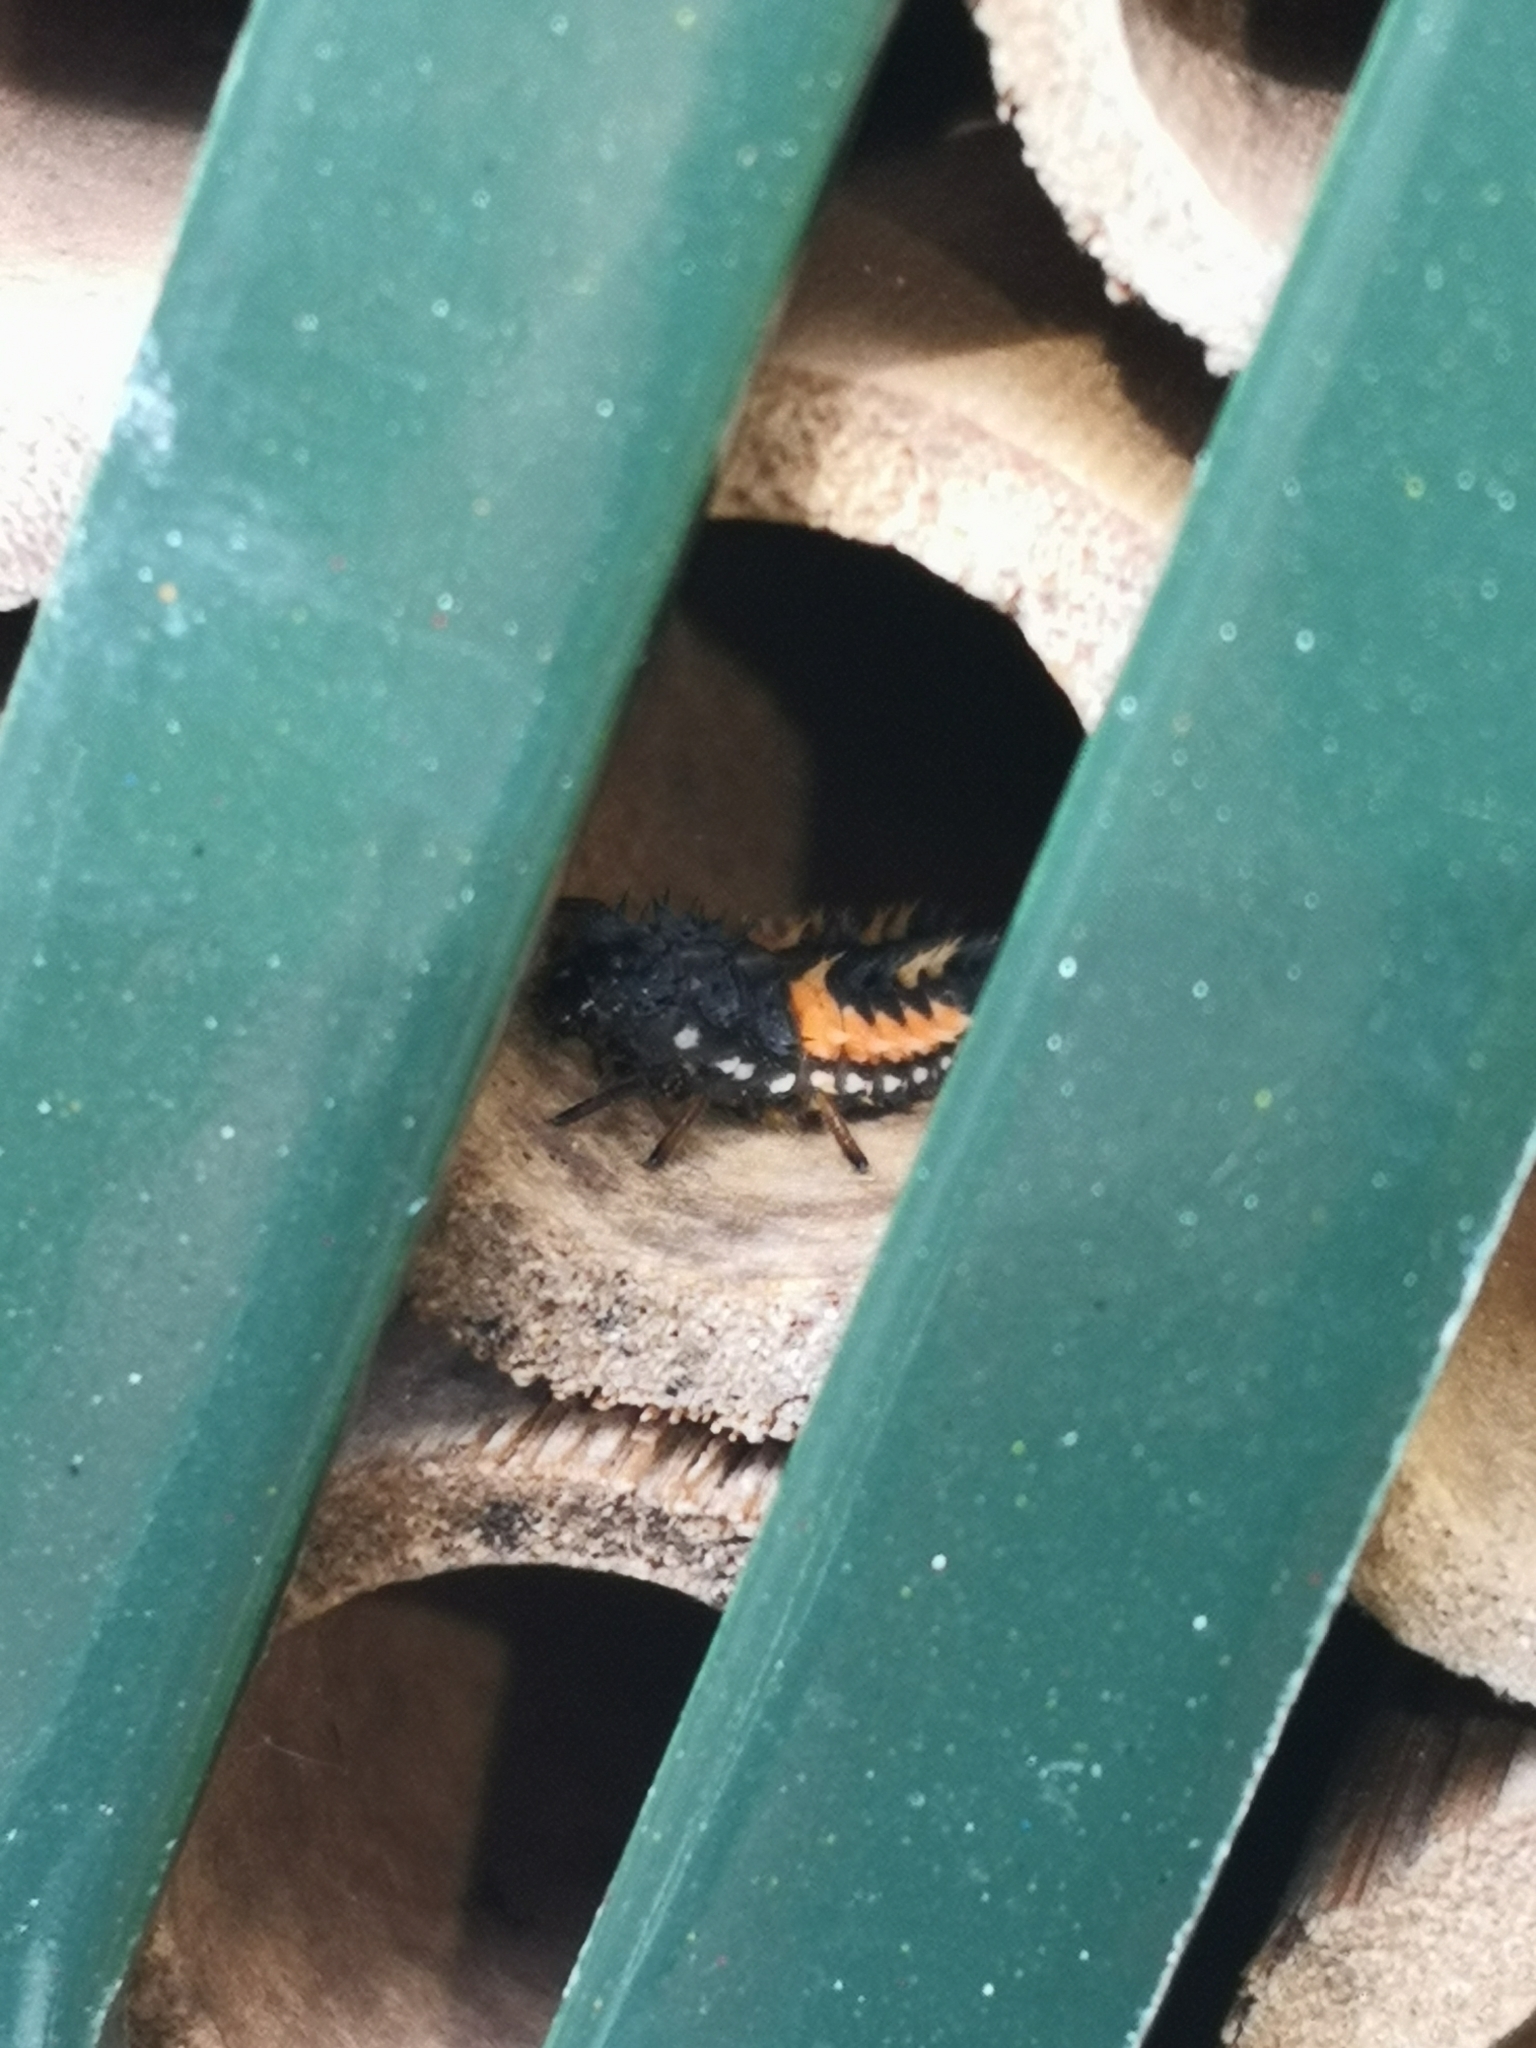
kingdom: Animalia
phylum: Arthropoda
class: Insecta
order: Coleoptera
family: Coccinellidae
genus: Harmonia
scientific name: Harmonia axyridis
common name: Harlequin ladybird
